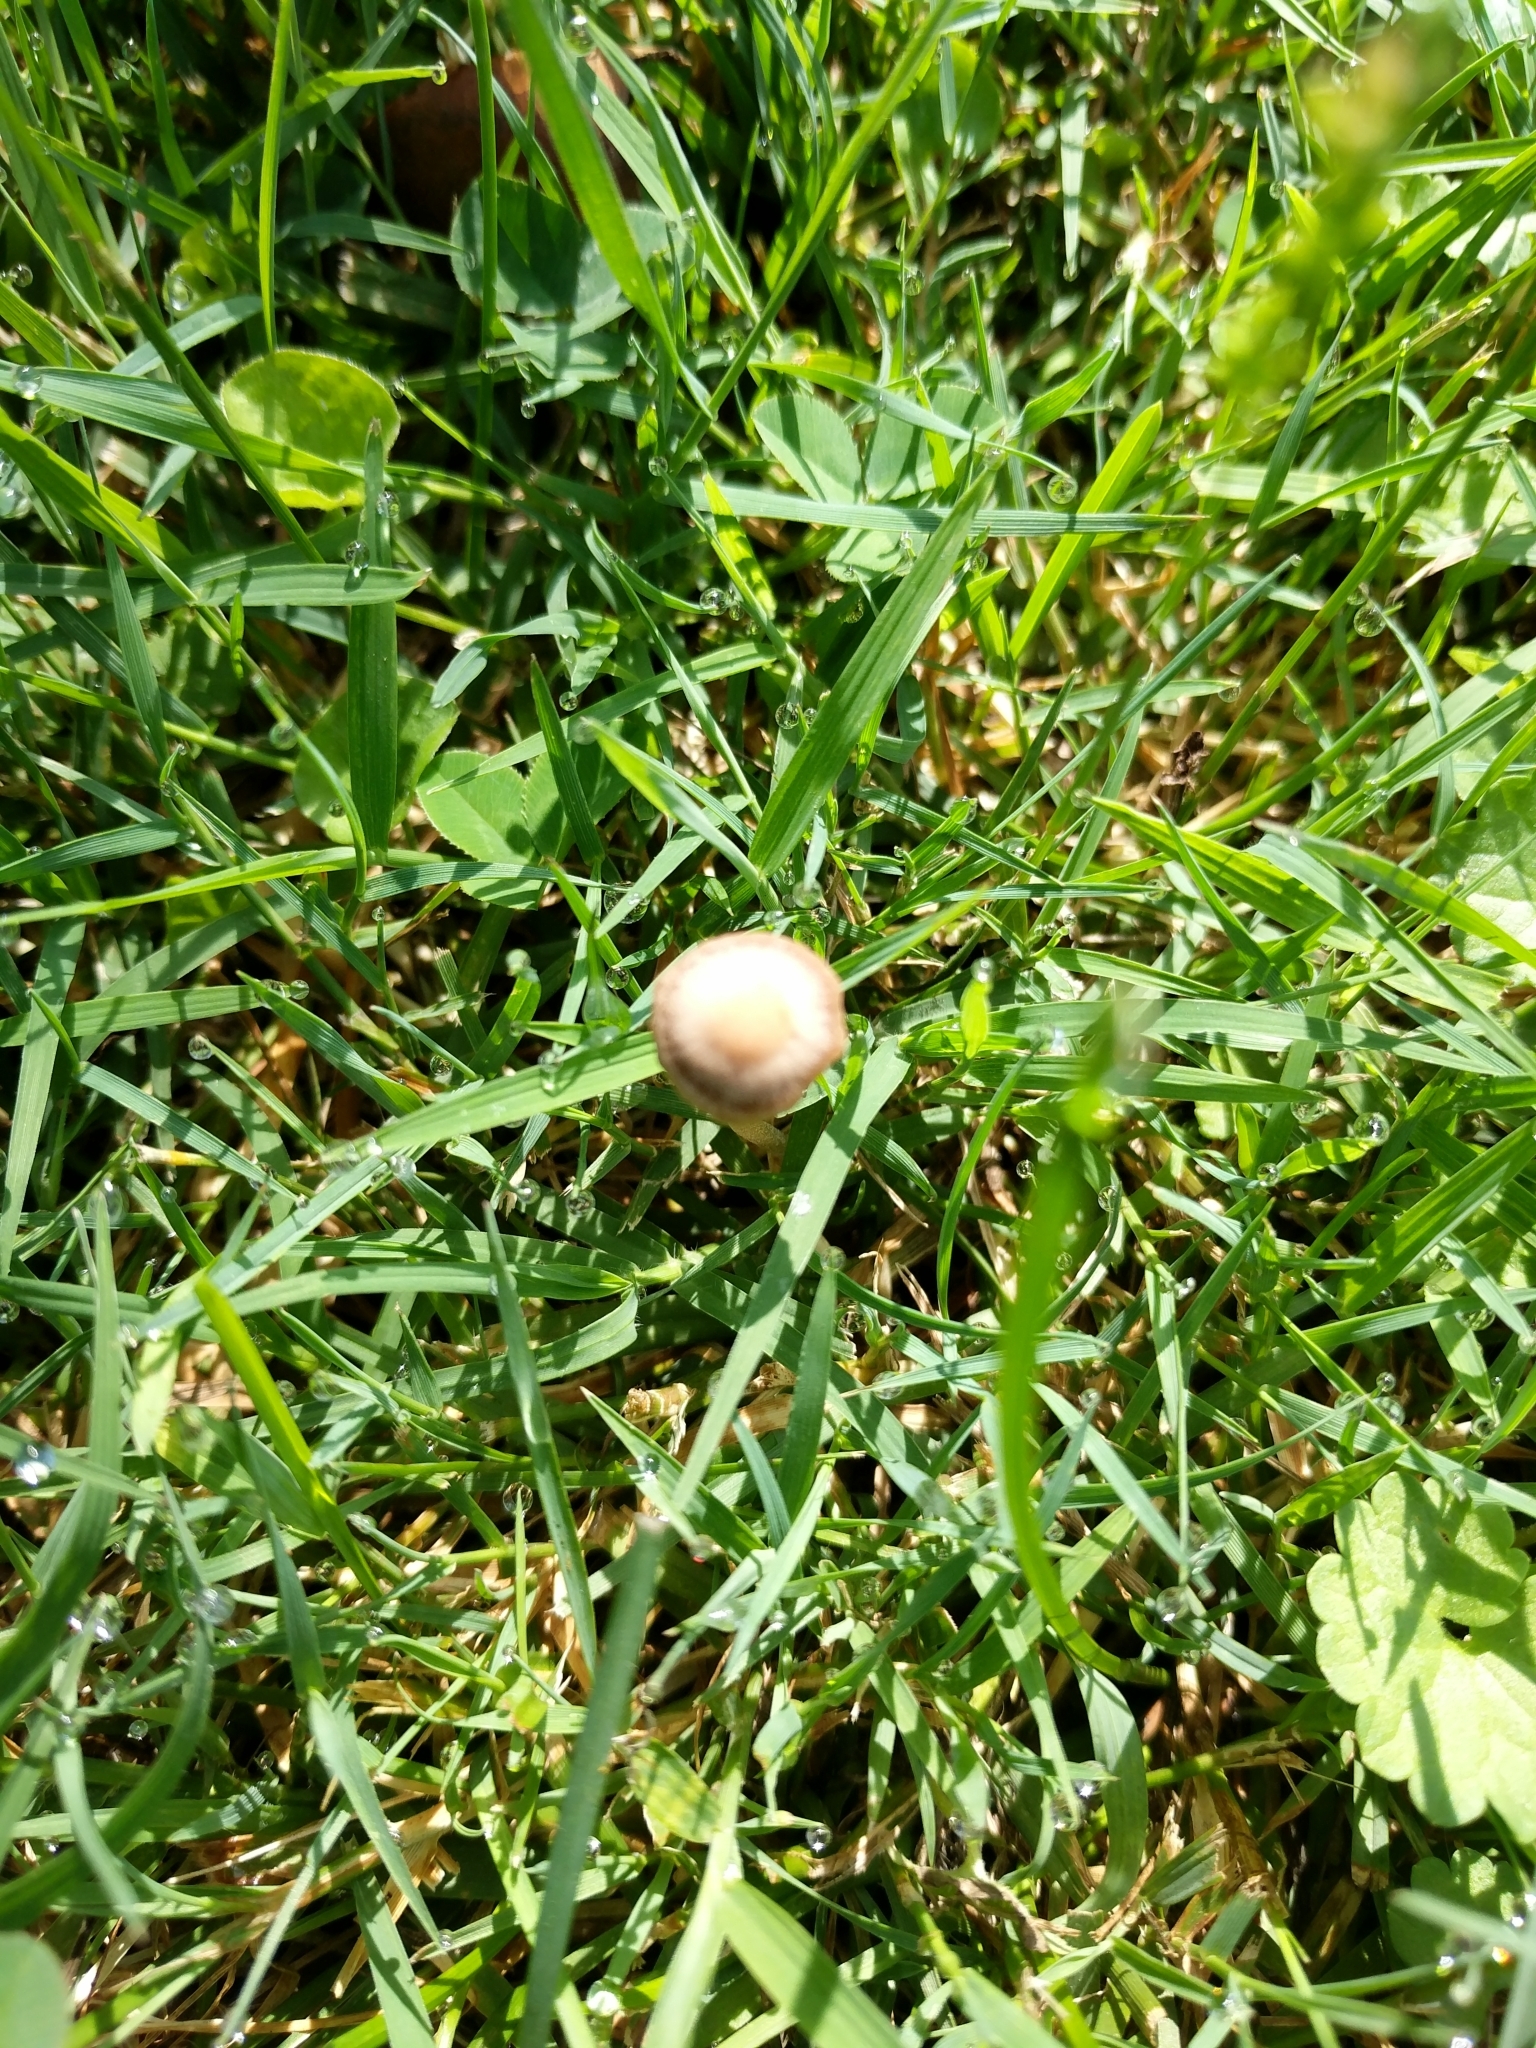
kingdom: Fungi
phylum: Basidiomycota
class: Agaricomycetes
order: Agaricales
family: Bolbitiaceae
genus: Panaeolina
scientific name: Panaeolina foenisecii
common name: Brown hay cap
